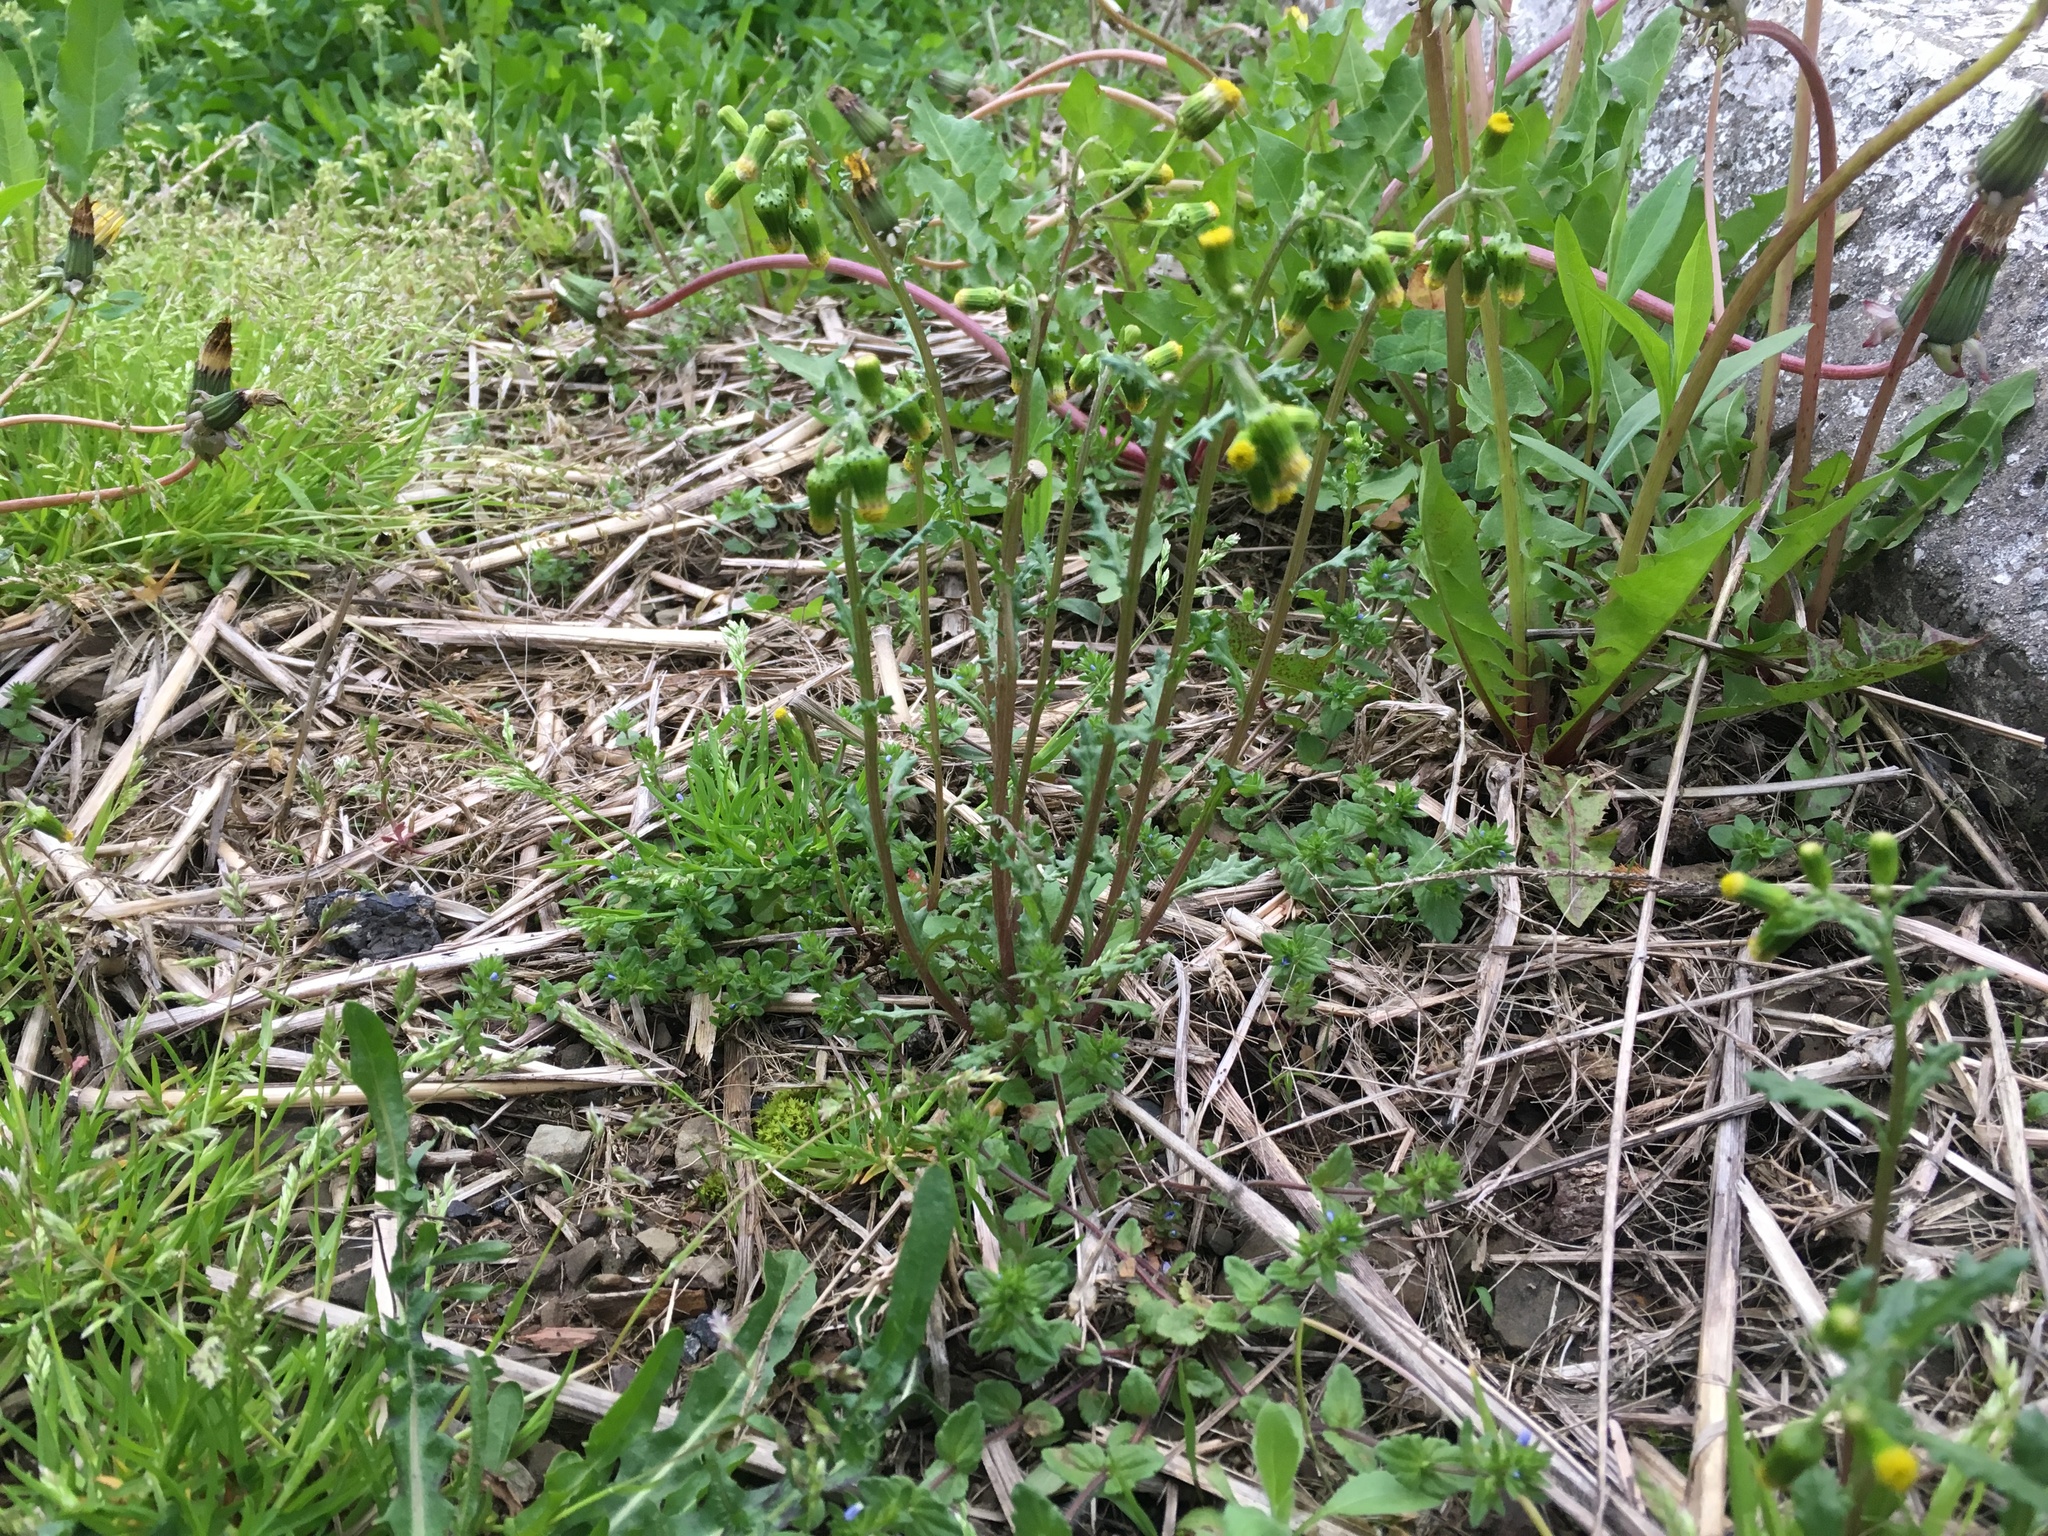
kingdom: Plantae
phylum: Tracheophyta
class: Magnoliopsida
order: Asterales
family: Asteraceae
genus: Senecio
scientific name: Senecio vulgaris
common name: Old-man-in-the-spring
